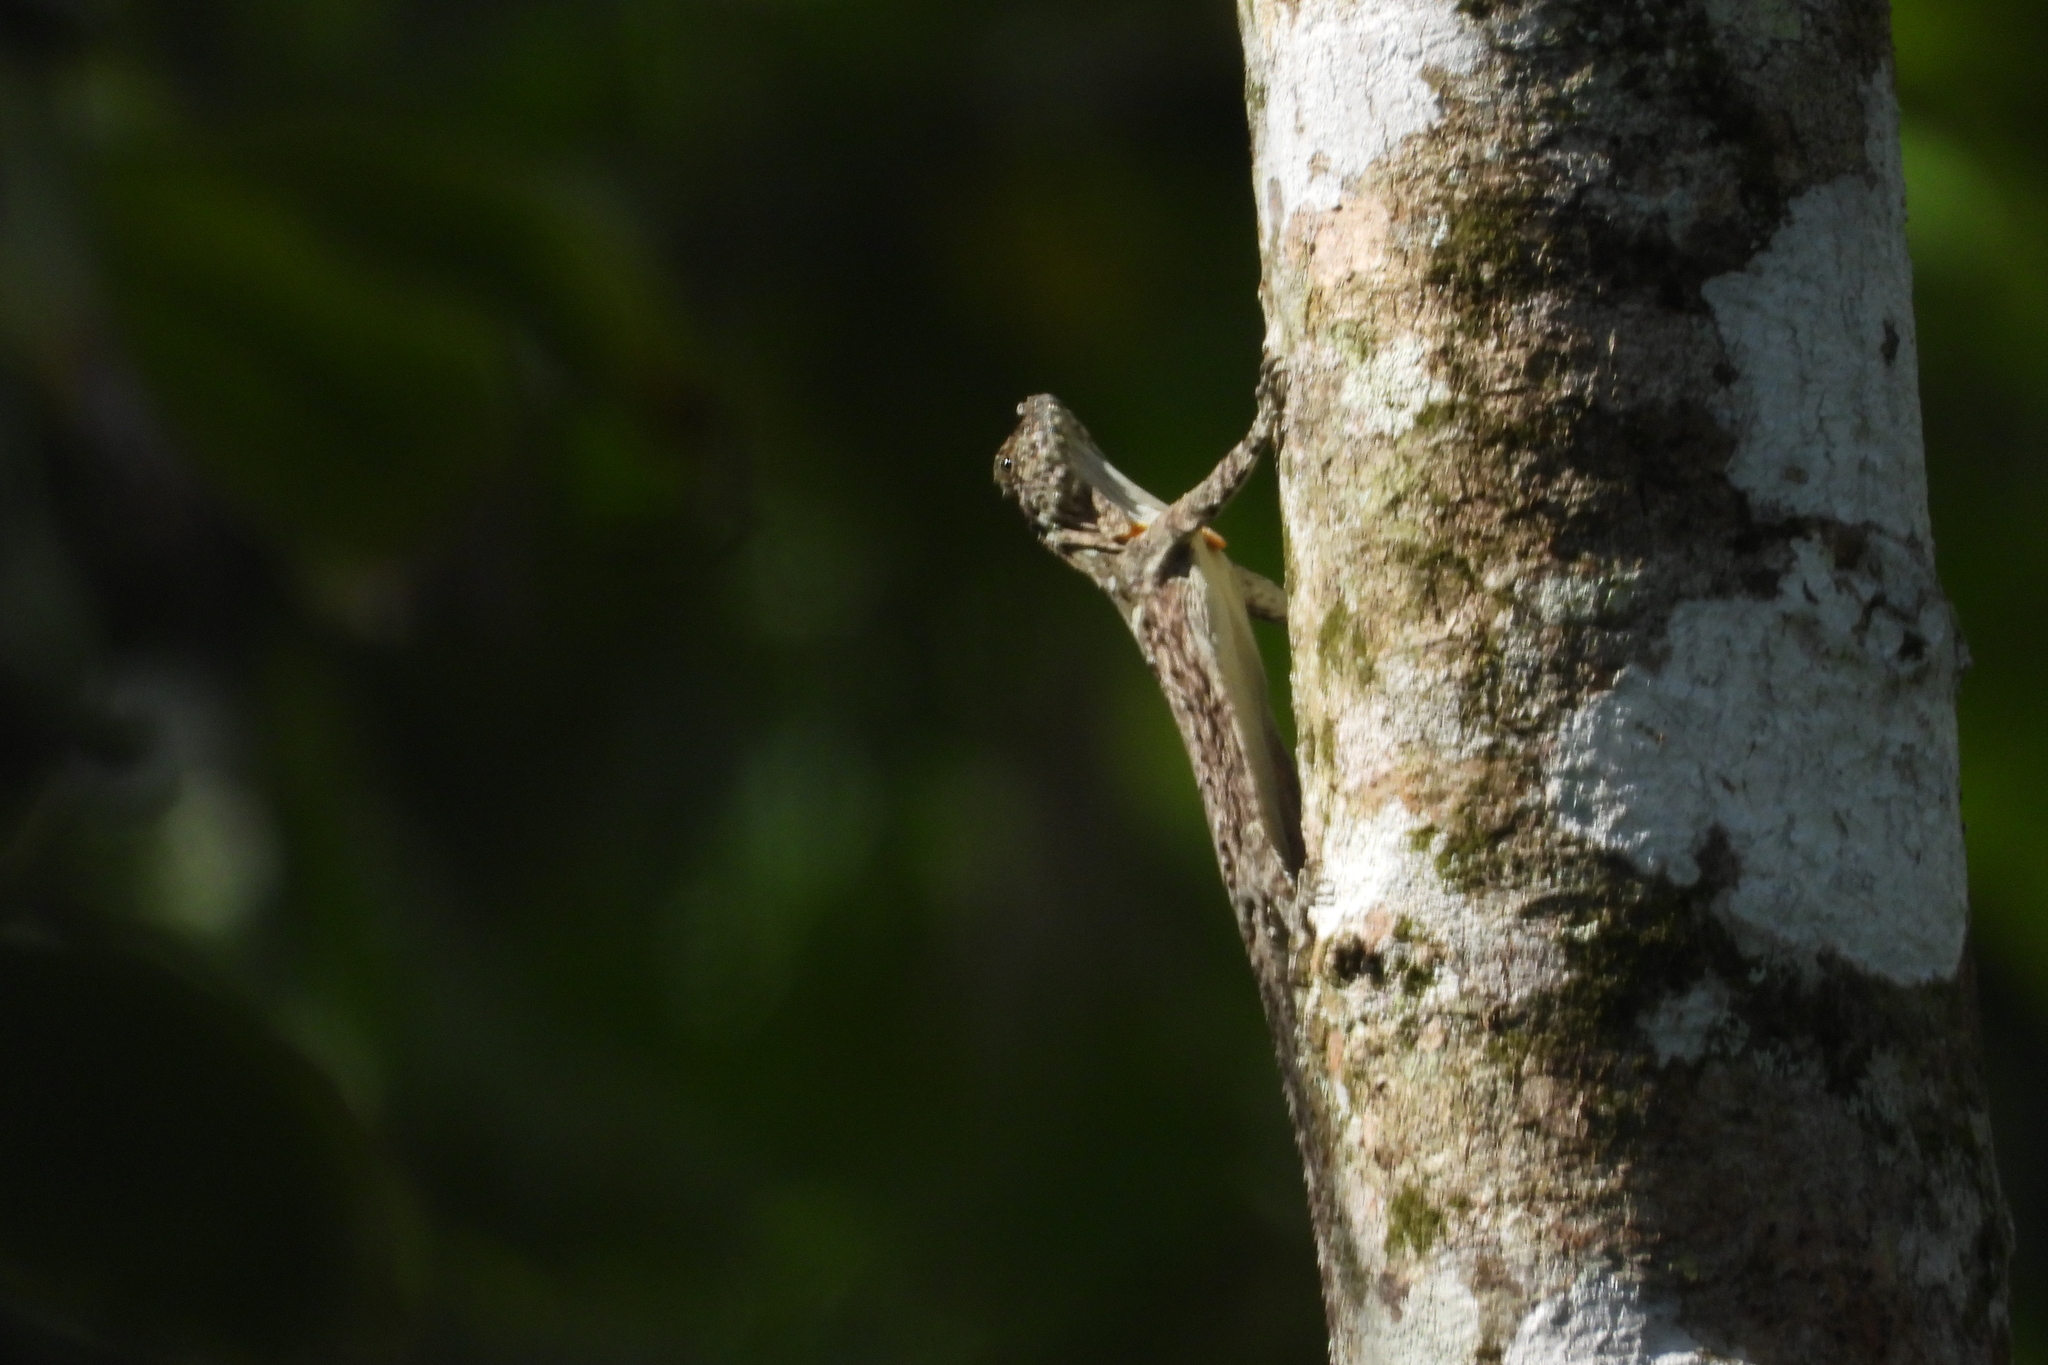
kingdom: Animalia
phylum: Chordata
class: Squamata
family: Agamidae
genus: Draco
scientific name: Draco volans
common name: Common flying dragon
